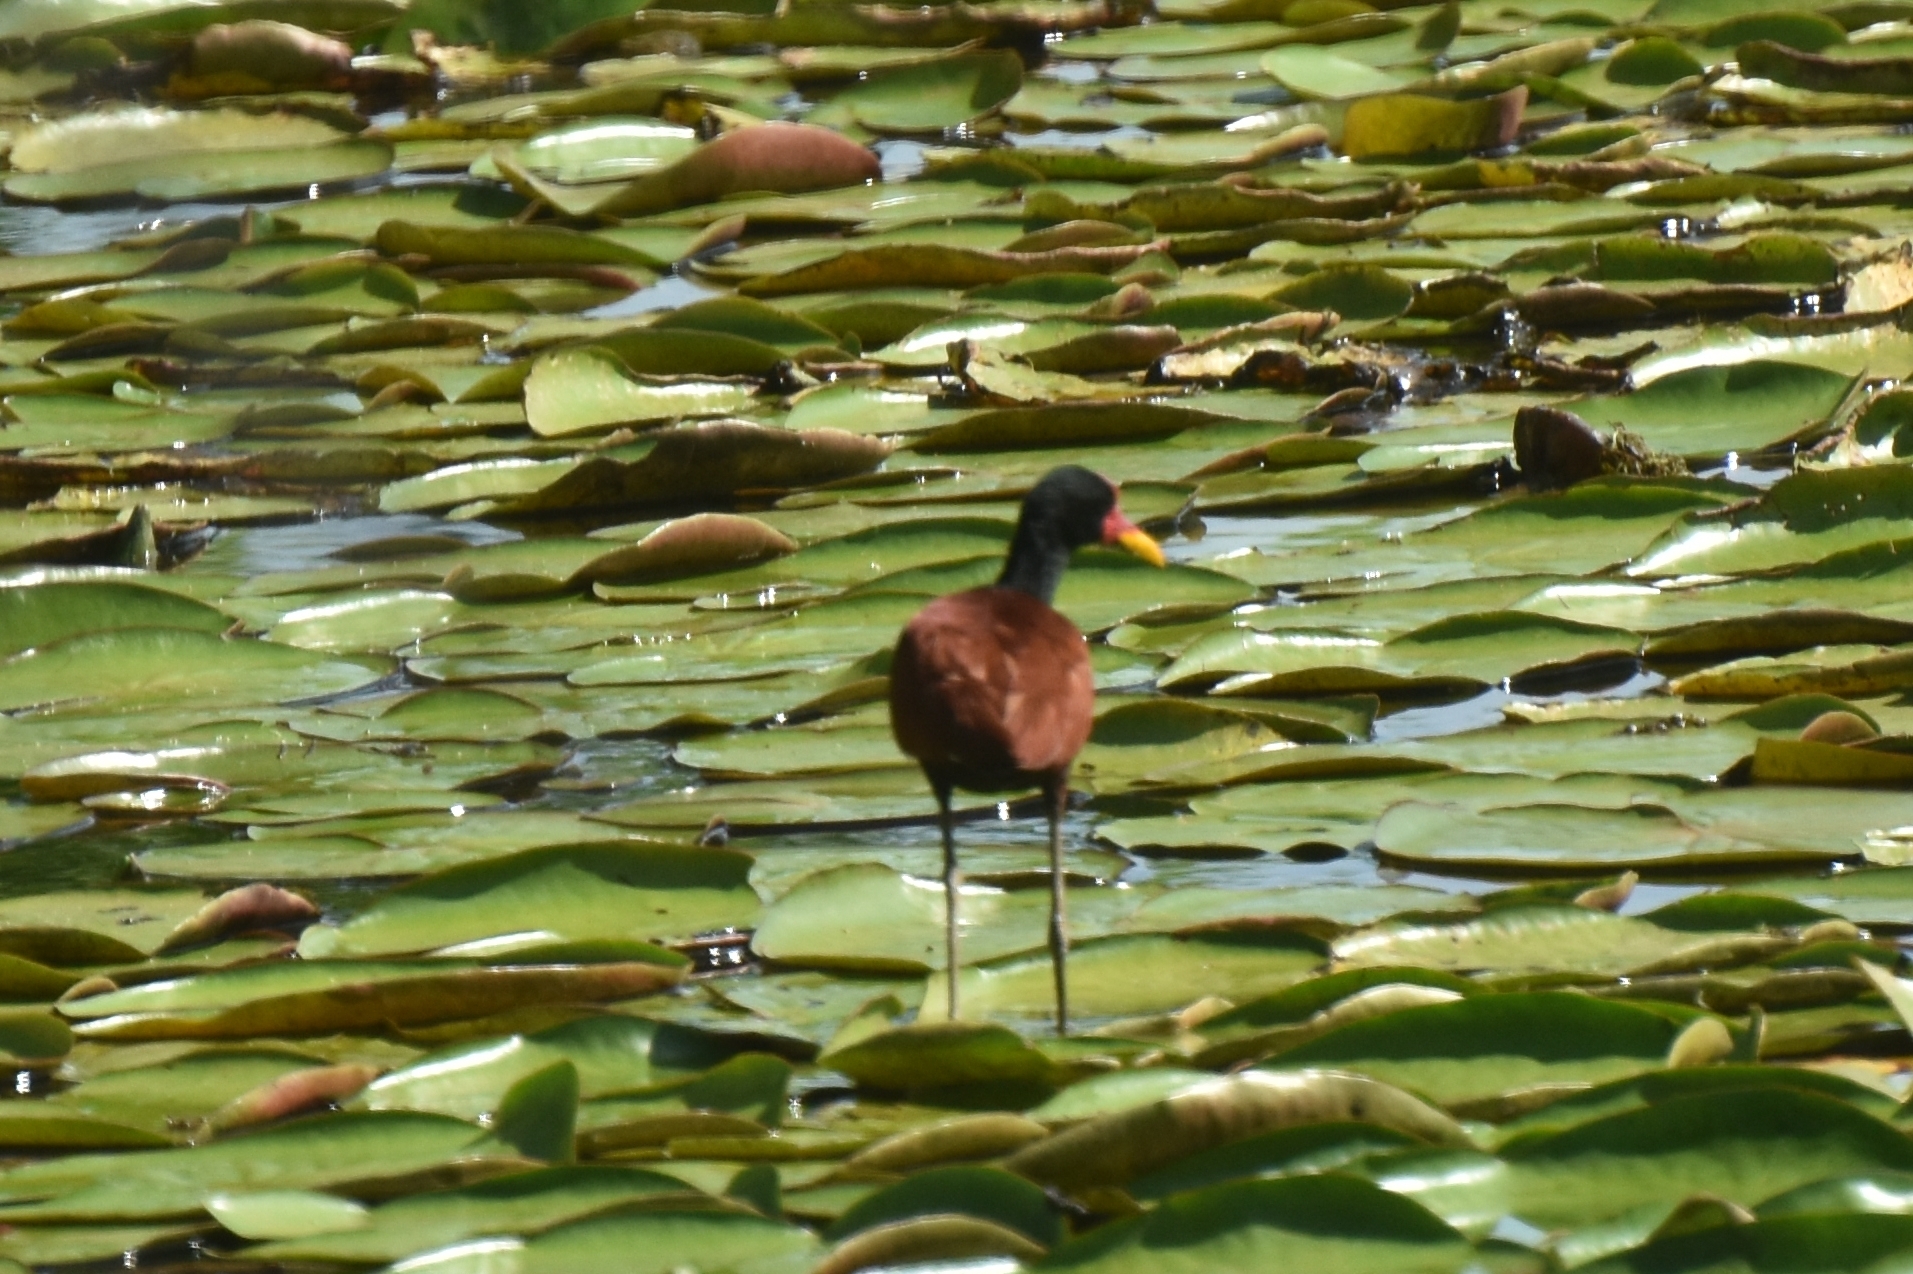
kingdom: Animalia
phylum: Chordata
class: Aves
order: Charadriiformes
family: Jacanidae
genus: Jacana
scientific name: Jacana jacana
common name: Wattled jacana
